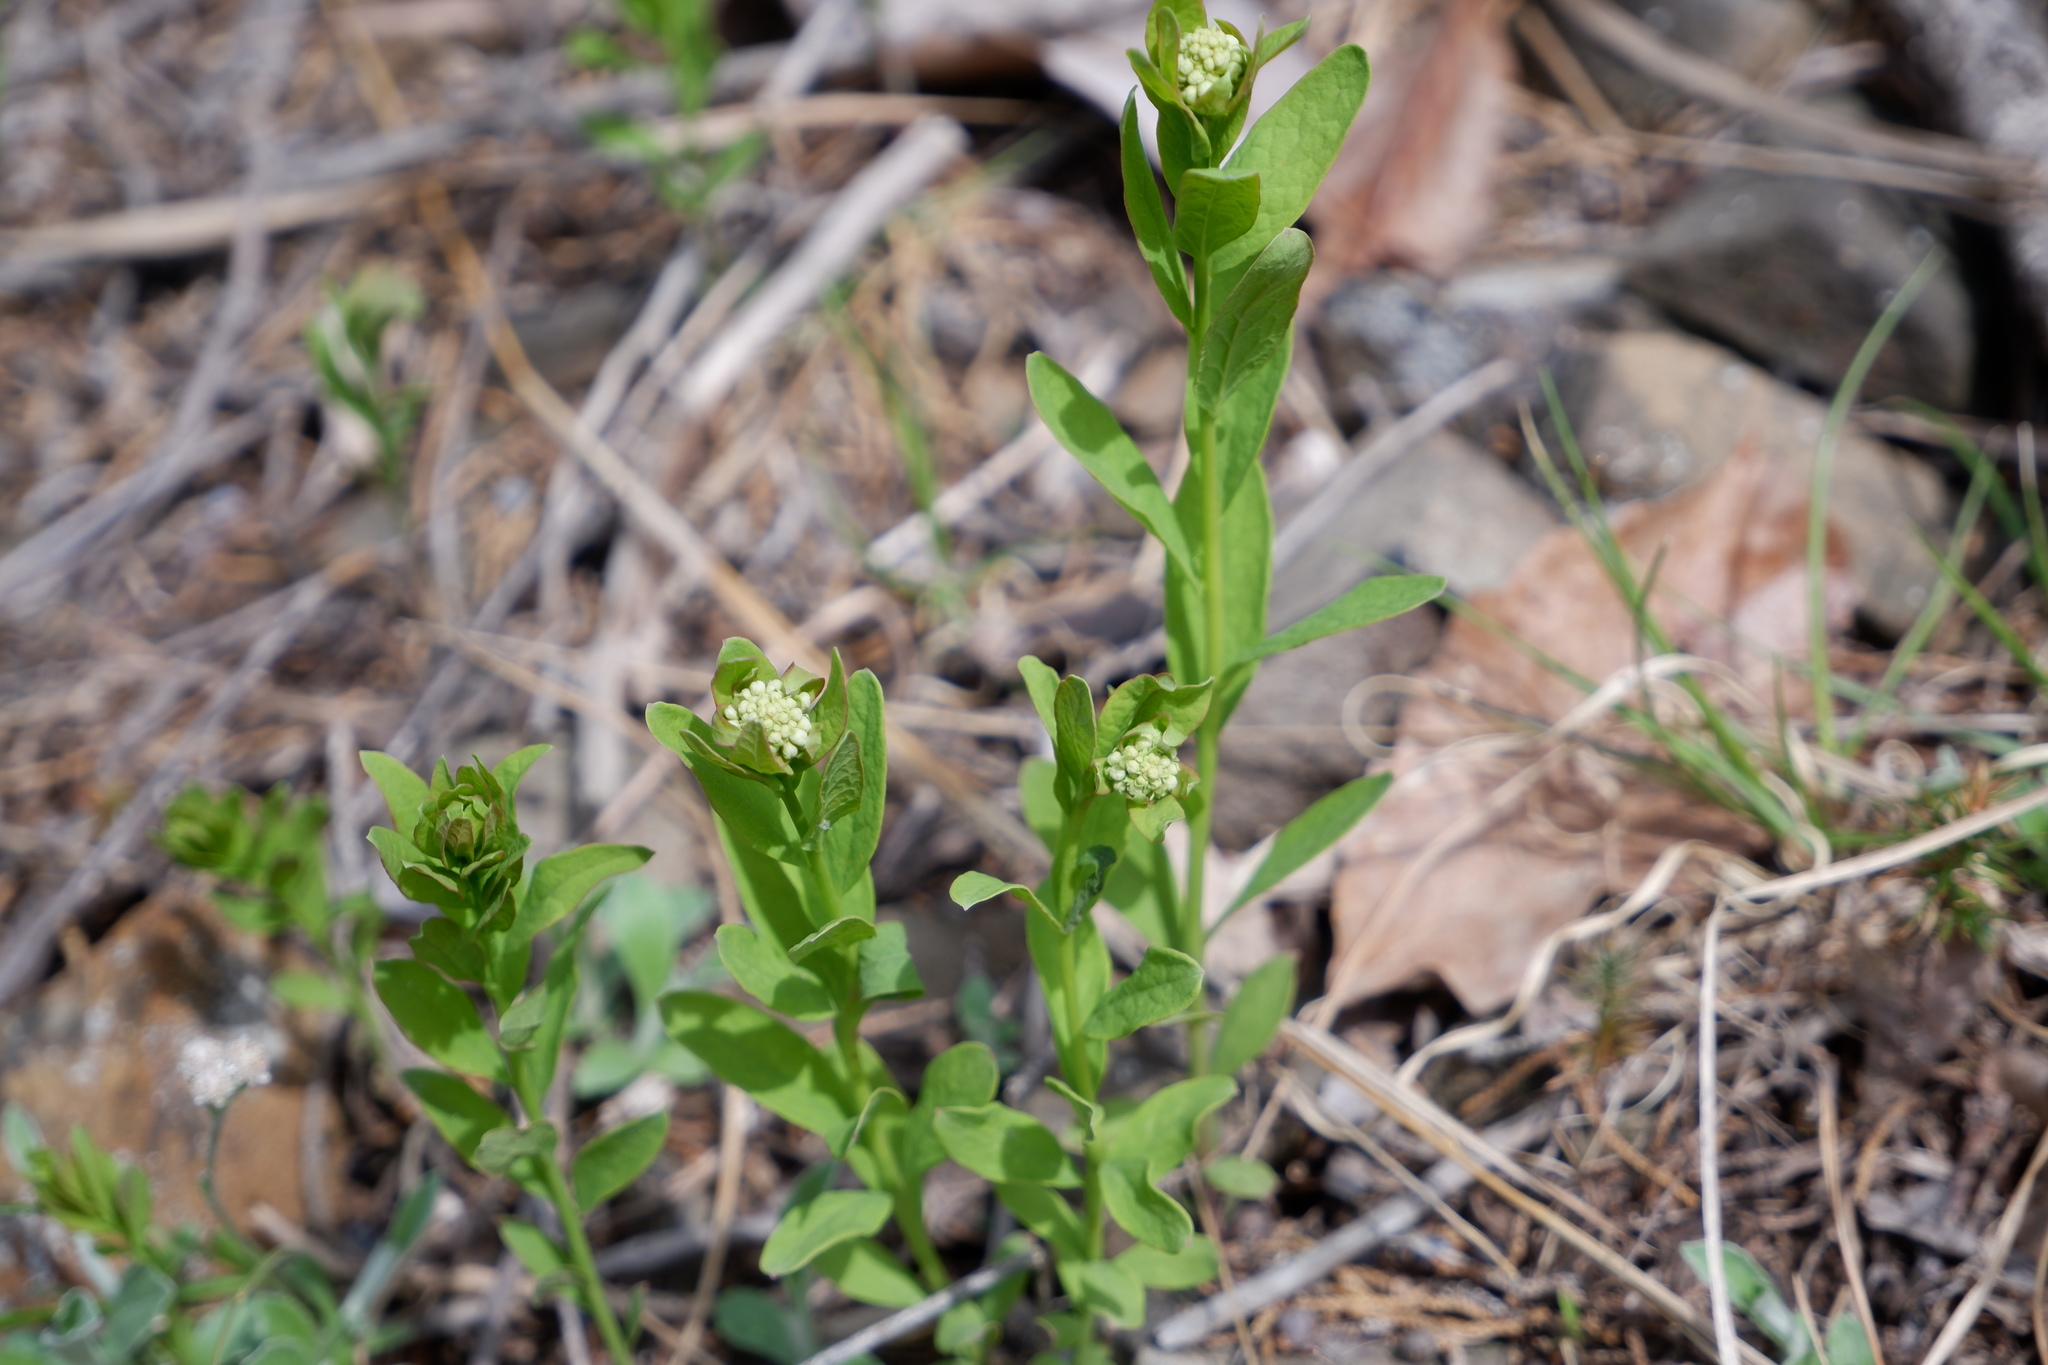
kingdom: Plantae
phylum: Tracheophyta
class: Magnoliopsida
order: Santalales
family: Comandraceae
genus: Comandra
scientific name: Comandra umbellata
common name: Bastard toadflax
